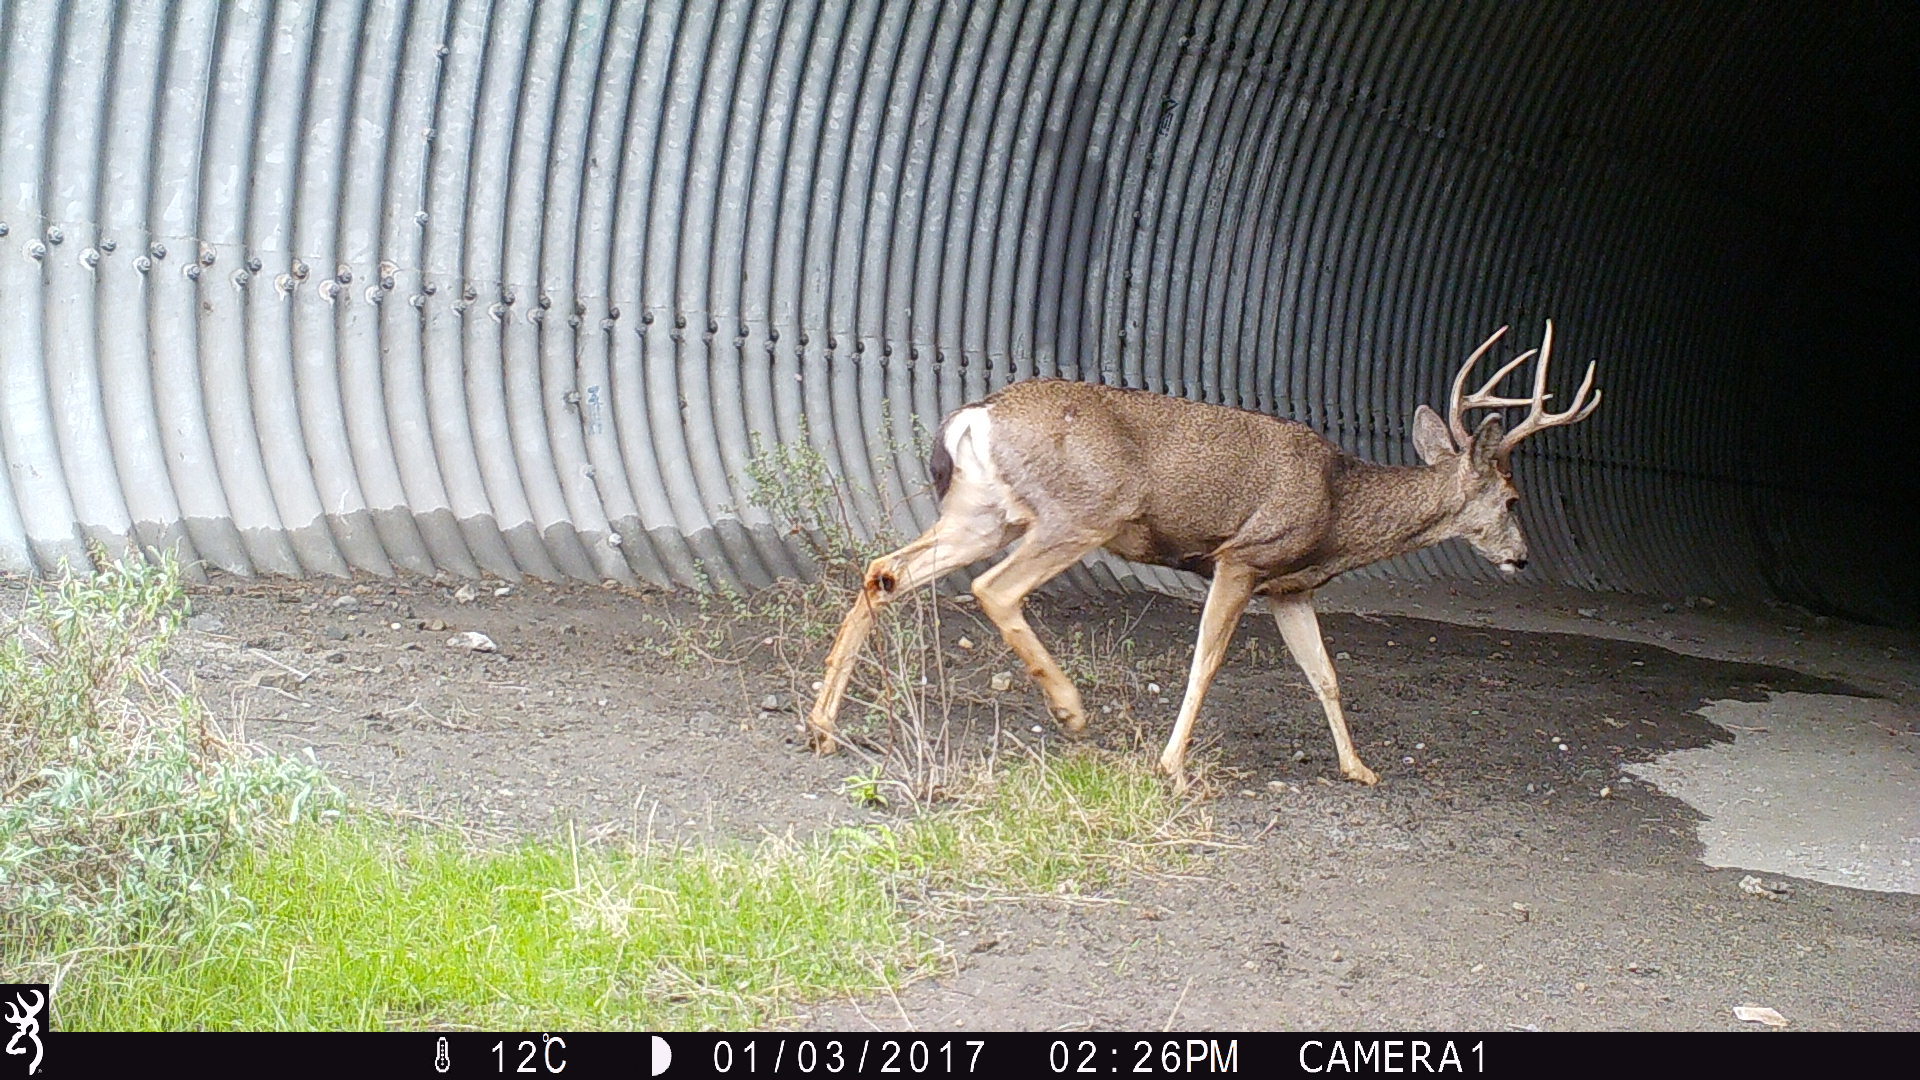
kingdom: Animalia
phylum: Chordata
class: Mammalia
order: Artiodactyla
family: Cervidae
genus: Odocoileus
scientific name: Odocoileus hemionus
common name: Mule deer
